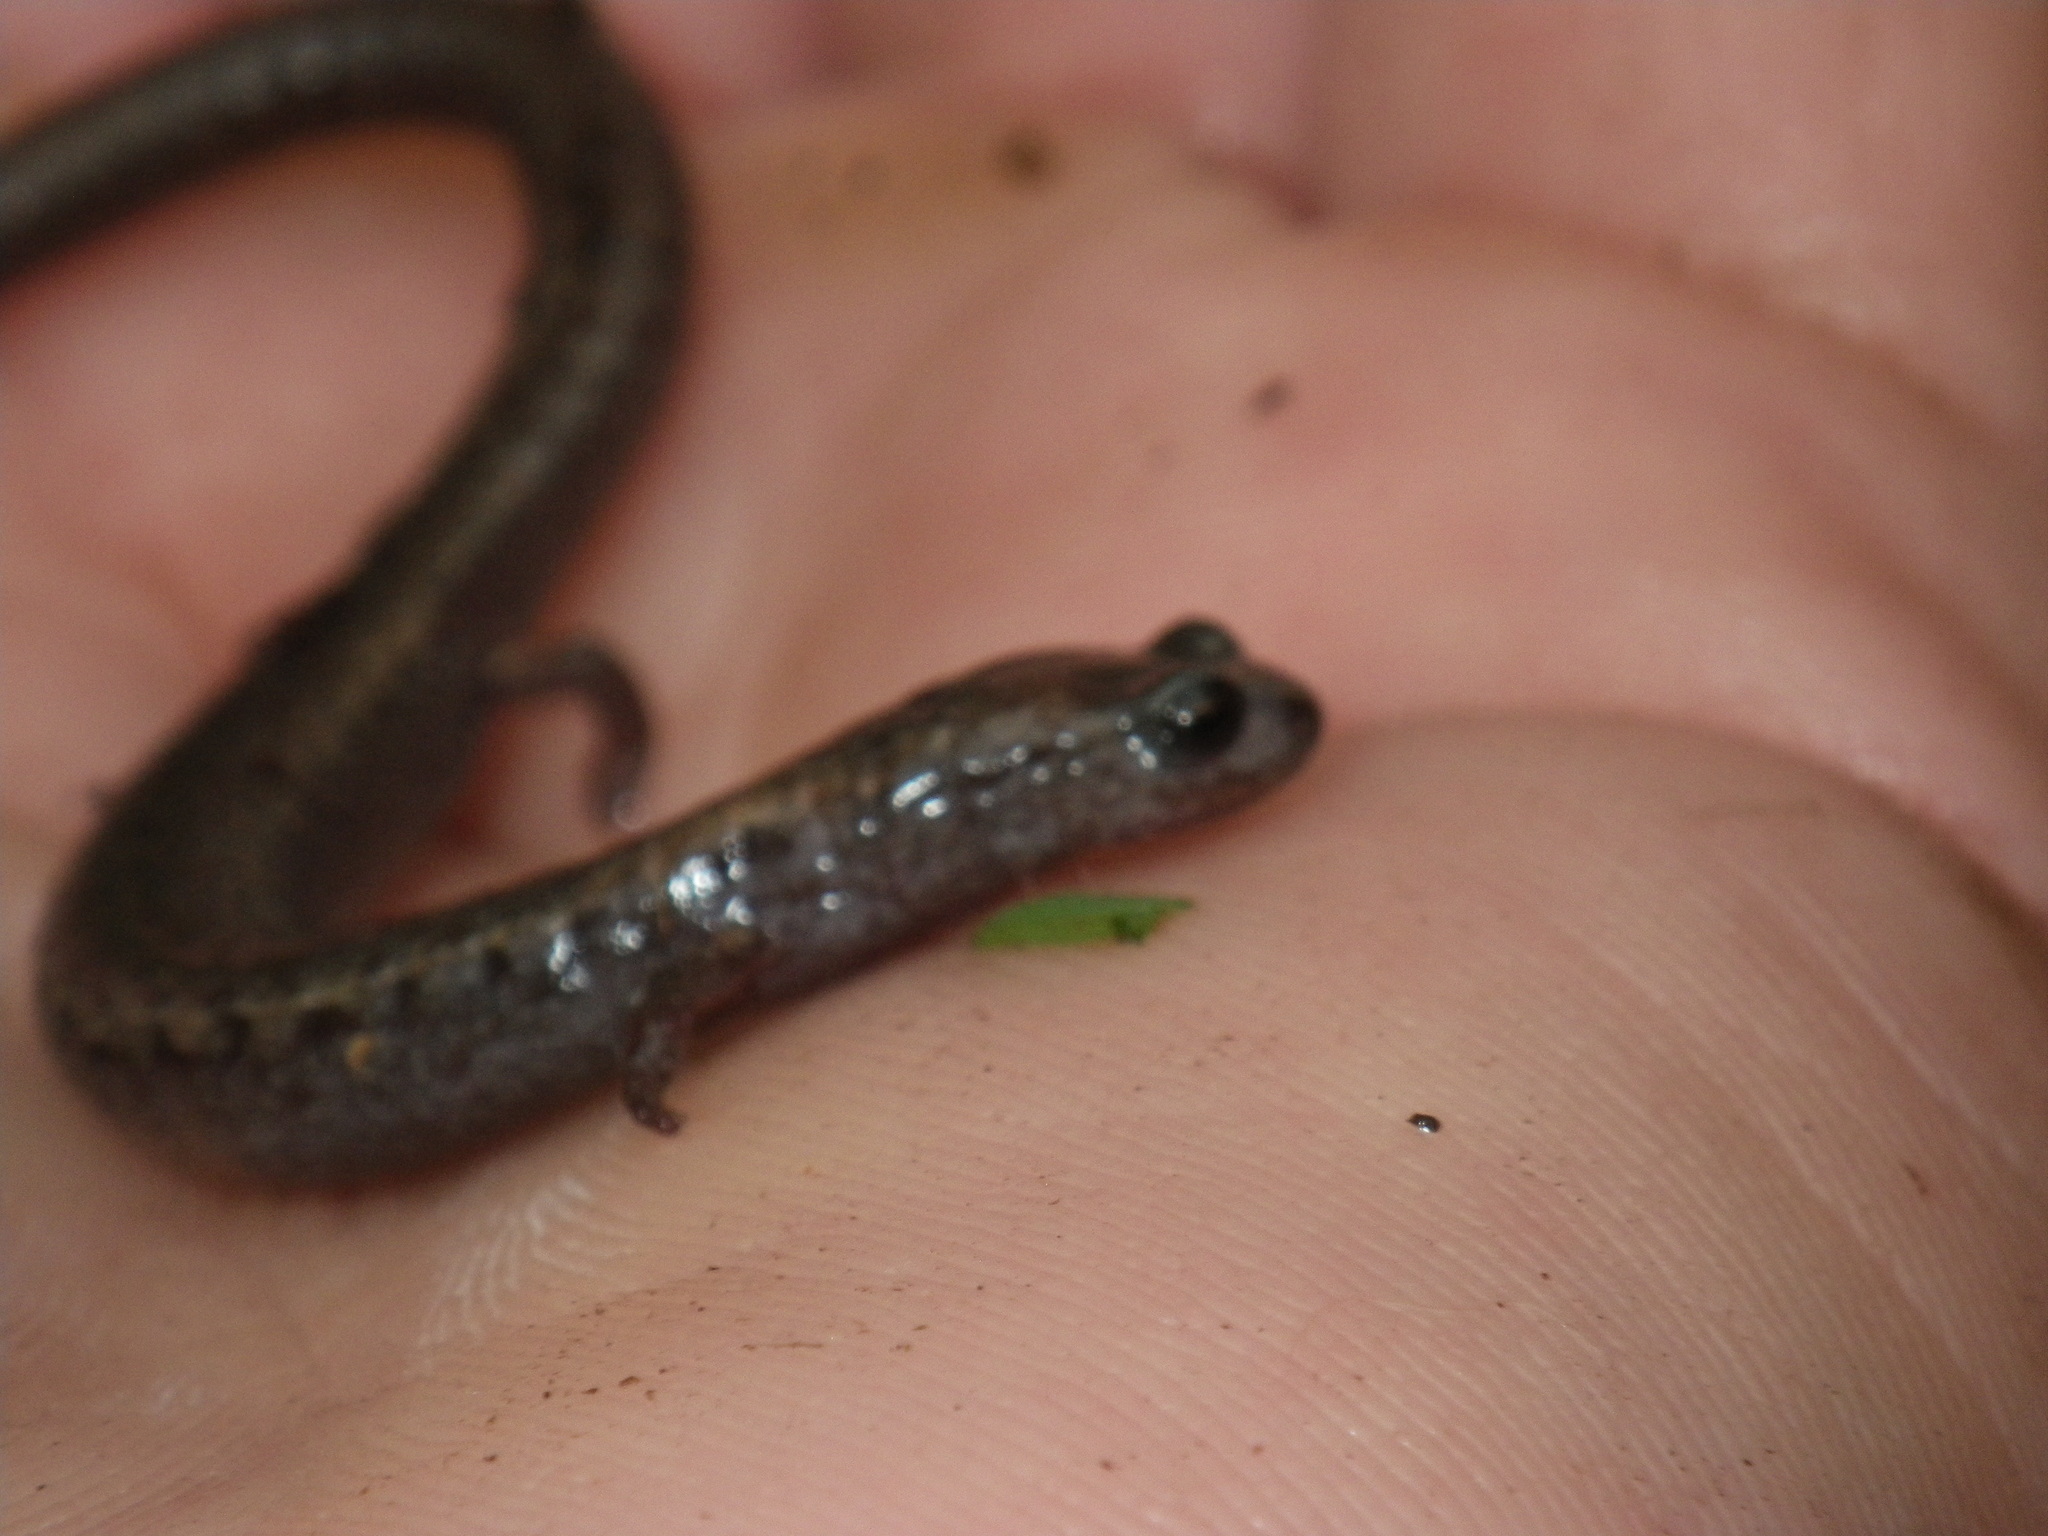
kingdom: Animalia
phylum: Chordata
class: Amphibia
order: Caudata
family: Plethodontidae
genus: Batrachoseps
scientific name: Batrachoseps attenuatus
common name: California slender salamander
